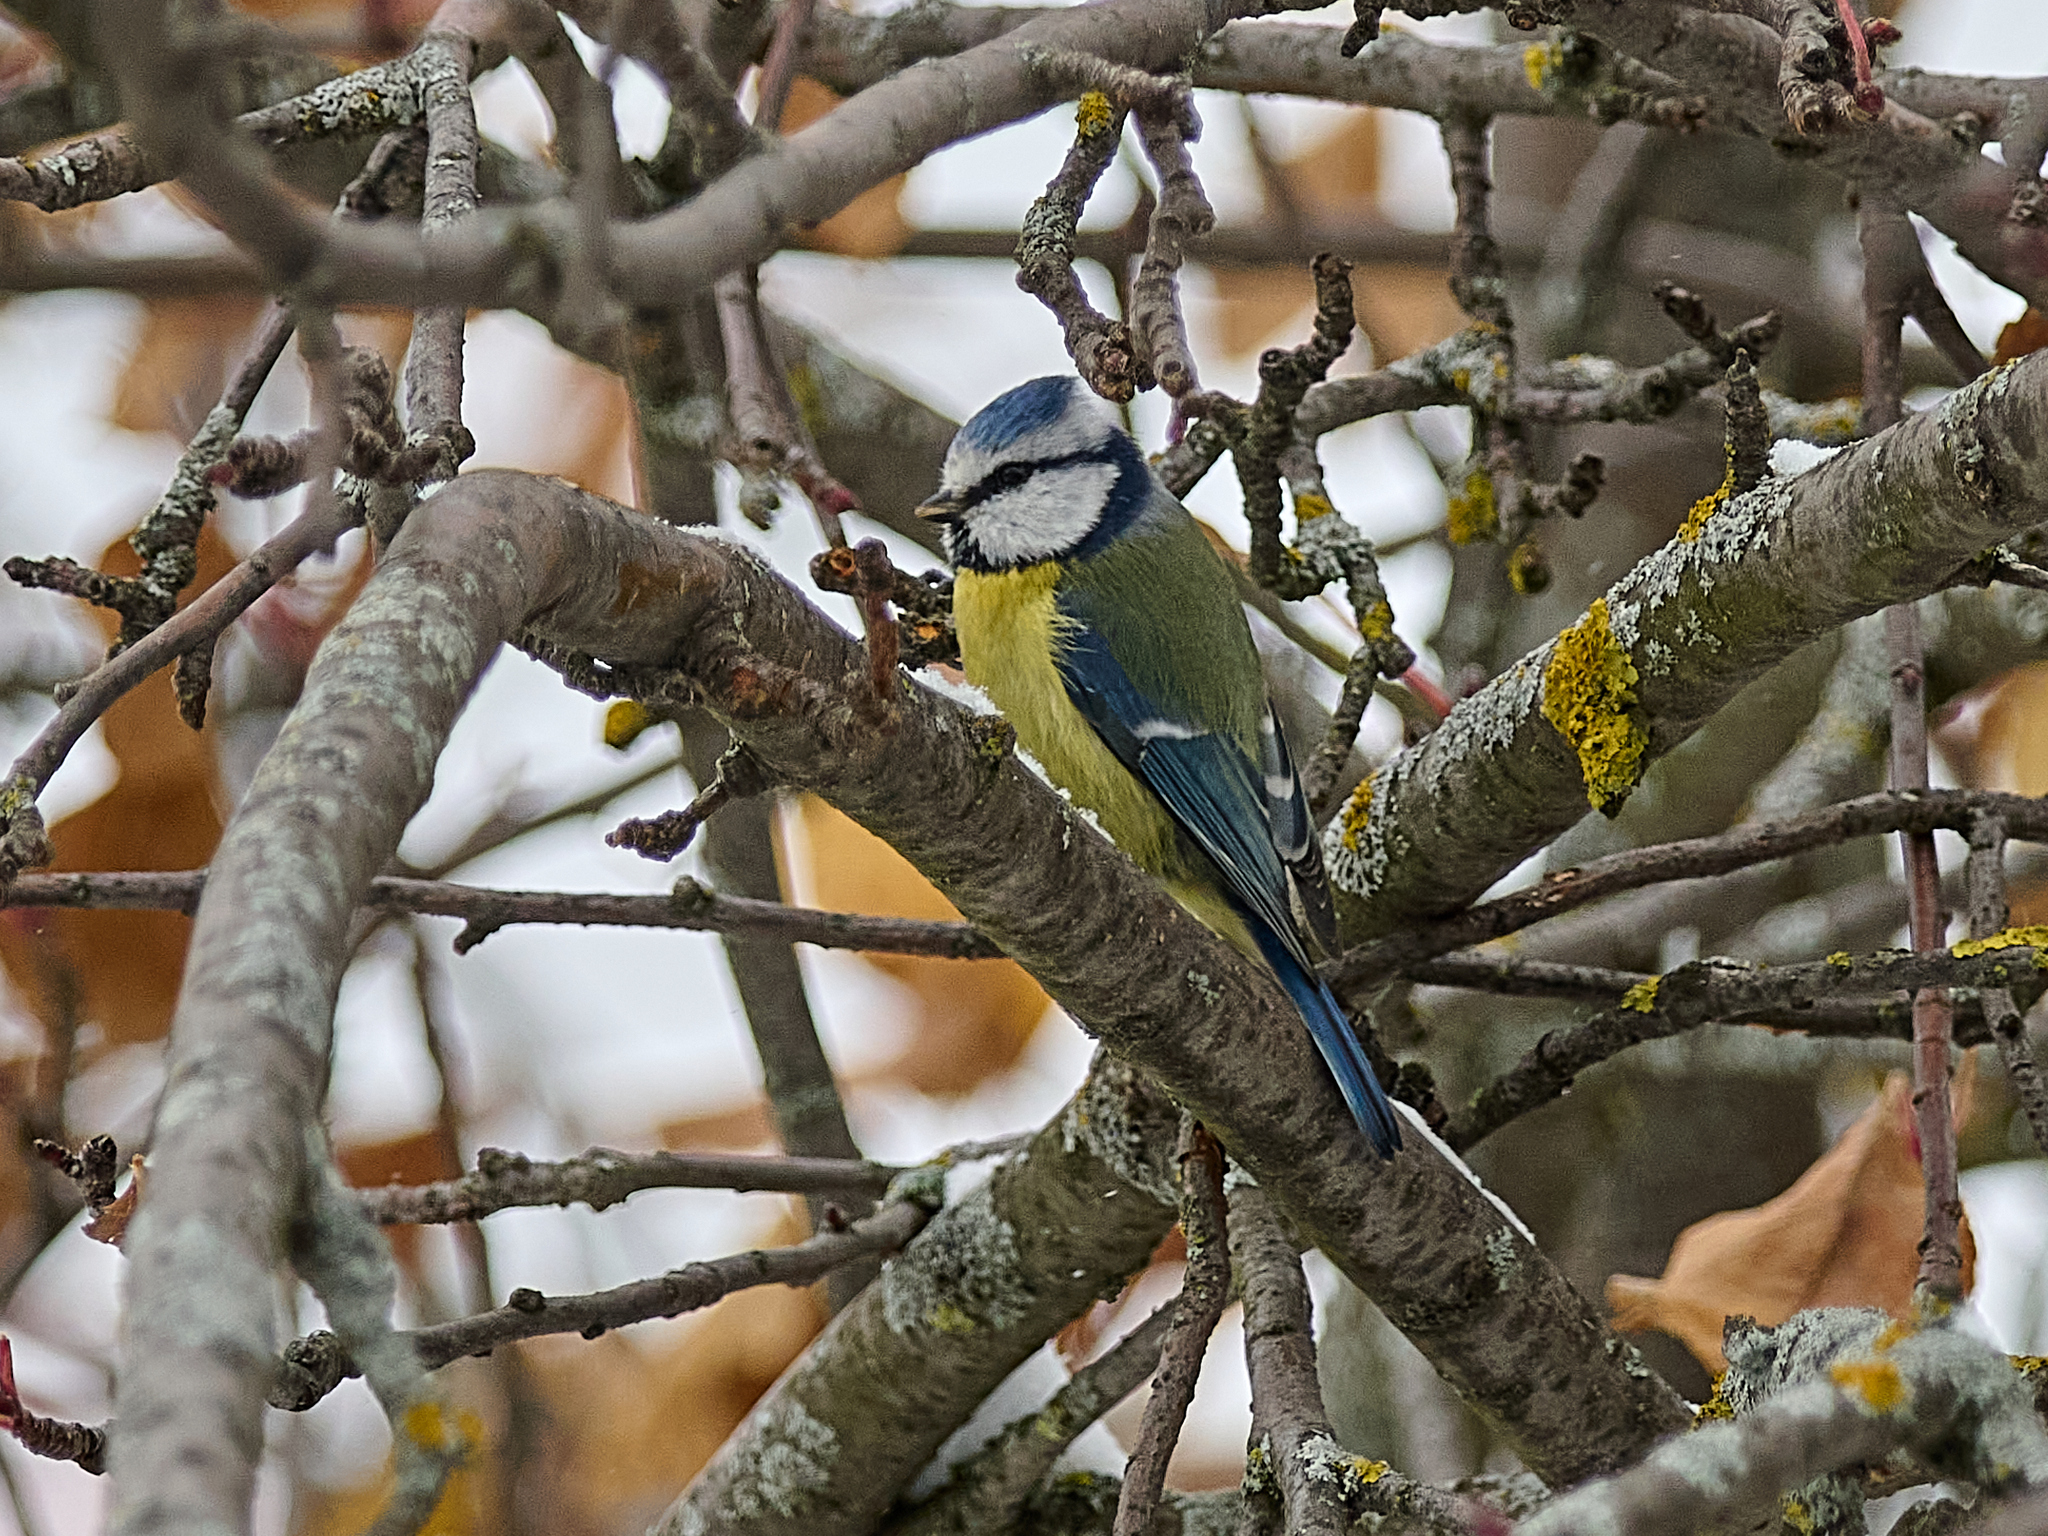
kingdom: Animalia
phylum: Chordata
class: Aves
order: Passeriformes
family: Paridae
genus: Cyanistes
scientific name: Cyanistes caeruleus
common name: Eurasian blue tit
